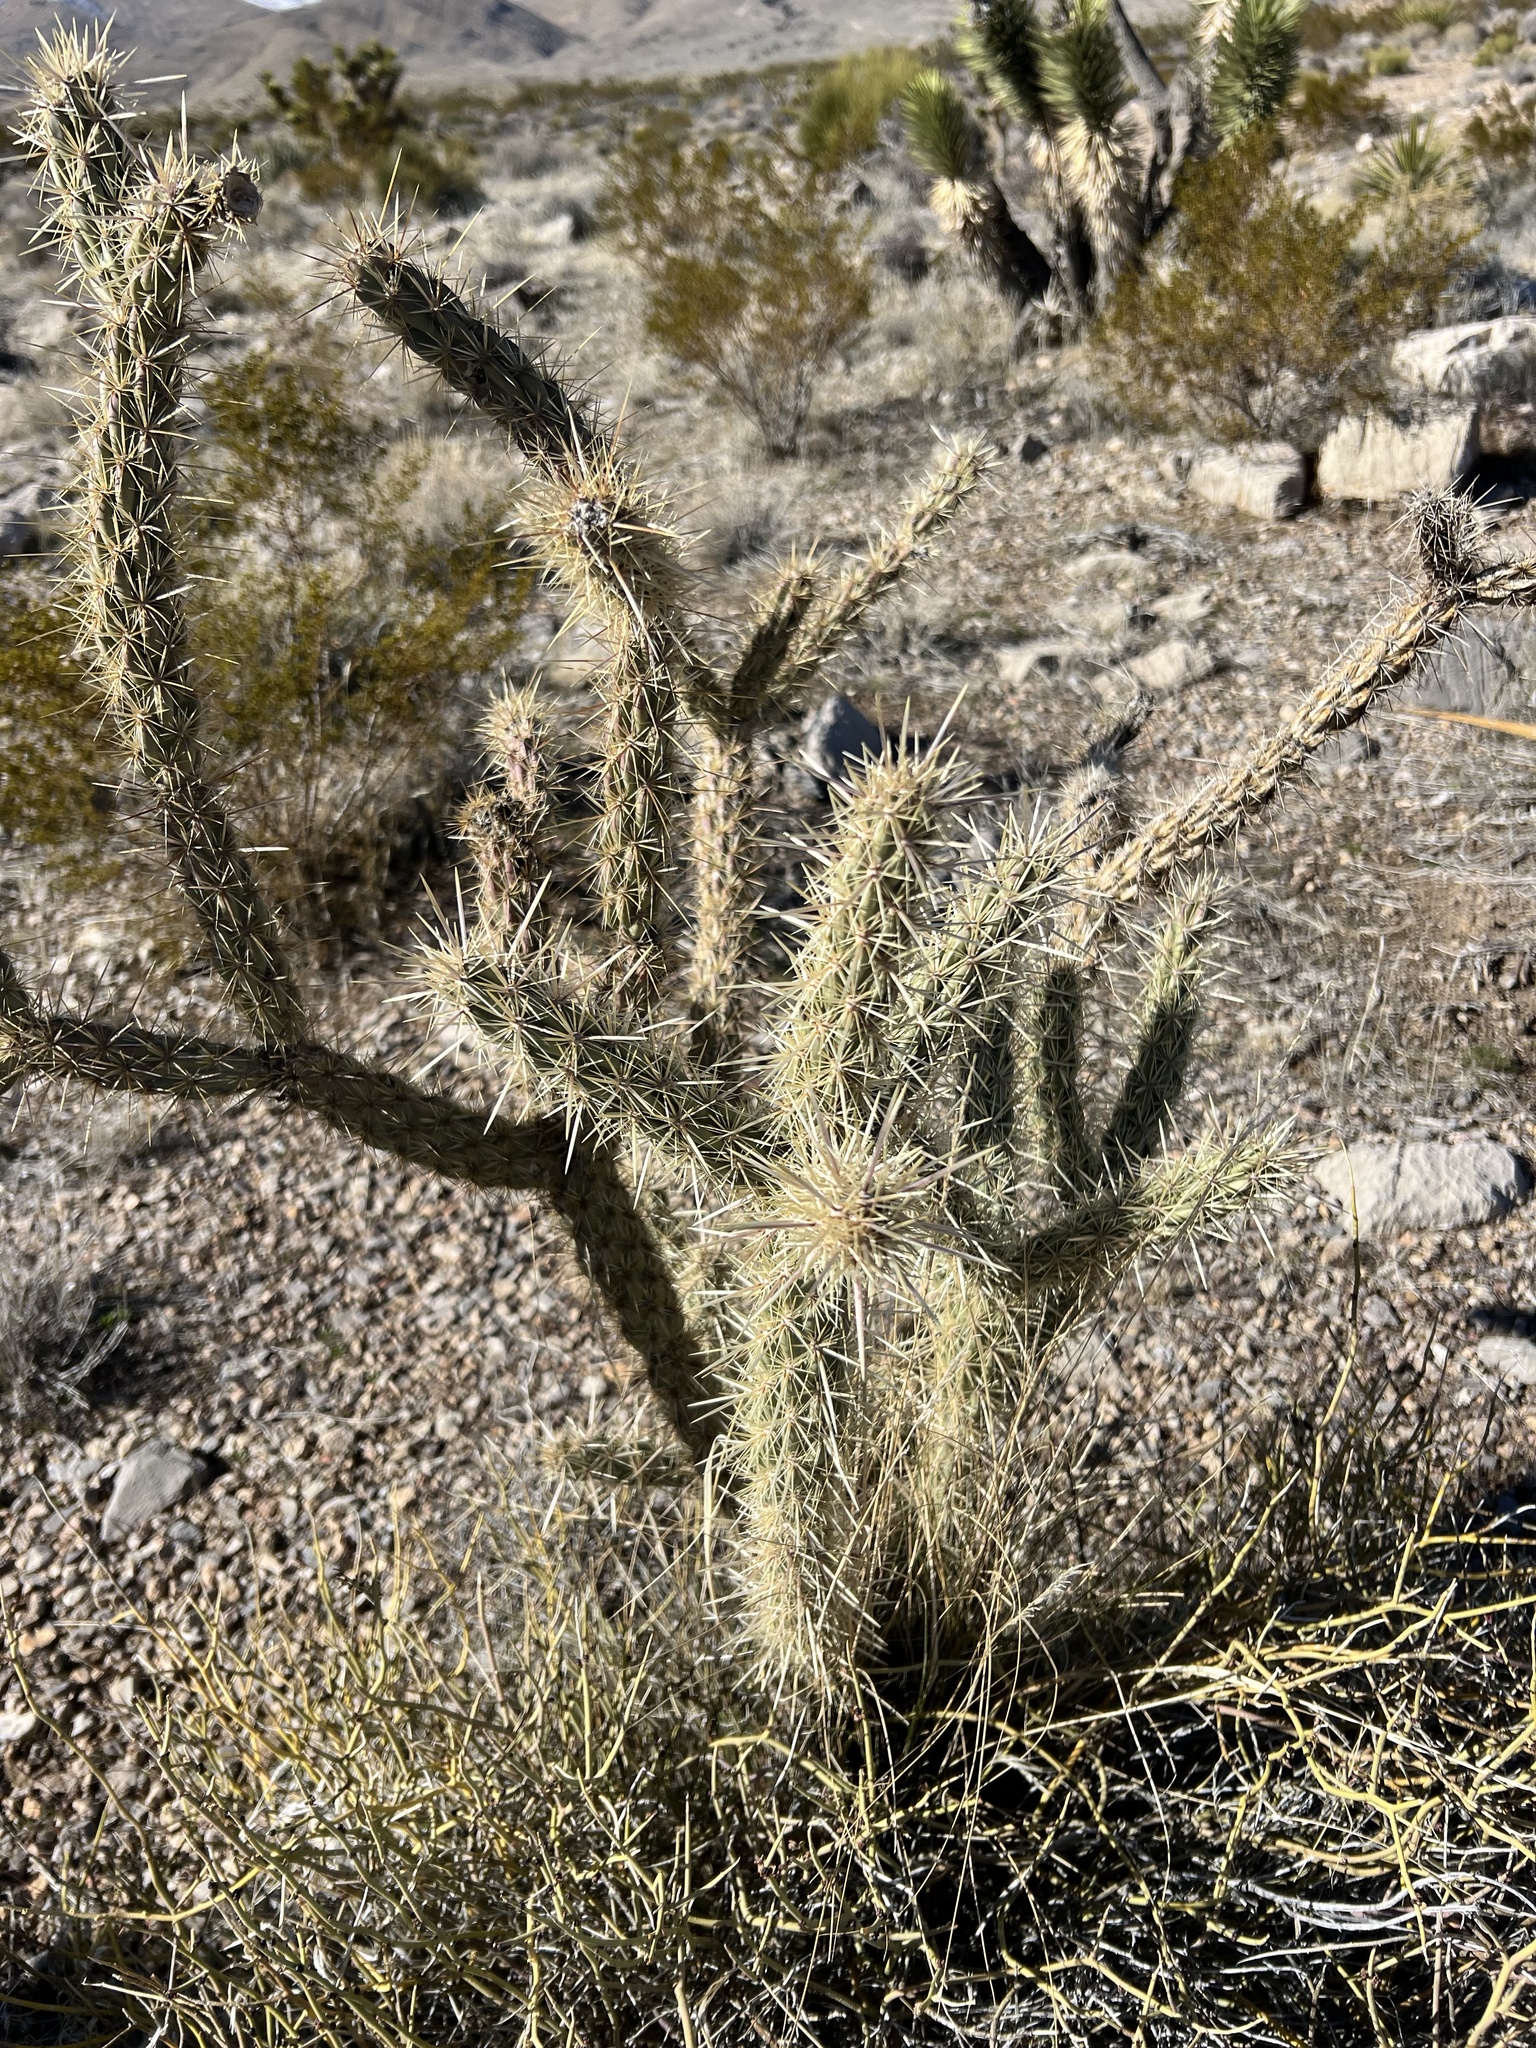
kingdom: Plantae
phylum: Tracheophyta
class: Magnoliopsida
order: Caryophyllales
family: Cactaceae
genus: Cylindropuntia
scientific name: Cylindropuntia acanthocarpa
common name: Buckhorn cholla
